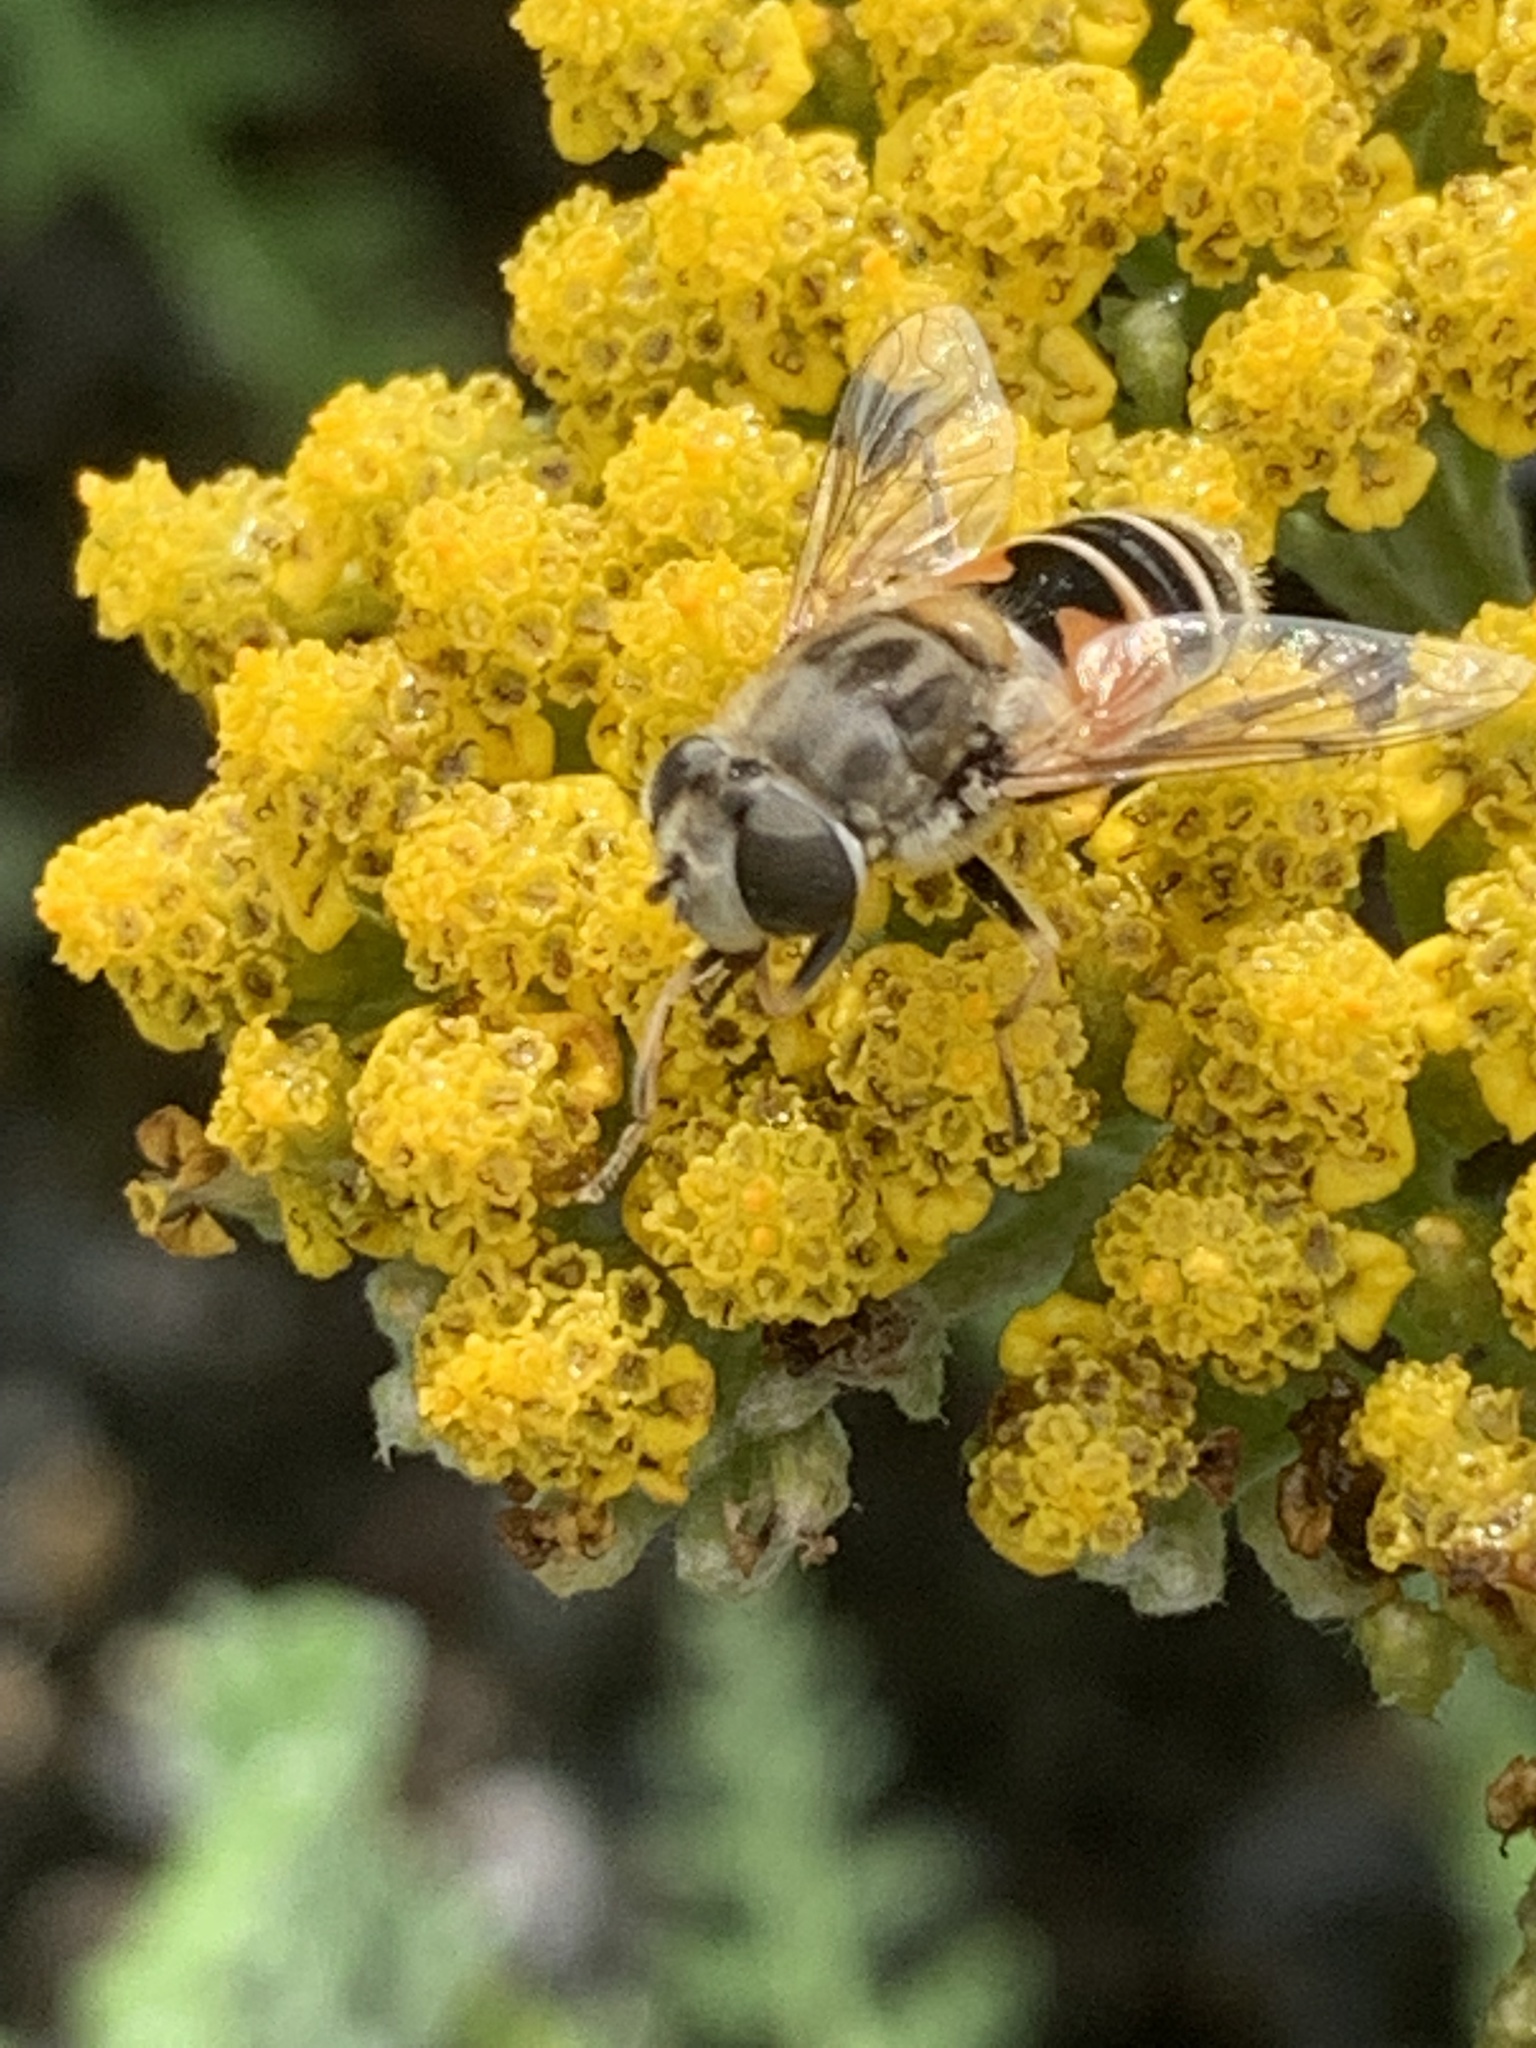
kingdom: Animalia
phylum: Arthropoda
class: Insecta
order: Diptera
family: Syrphidae
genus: Eristalis
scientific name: Eristalis arbustorum
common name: Hover fly
